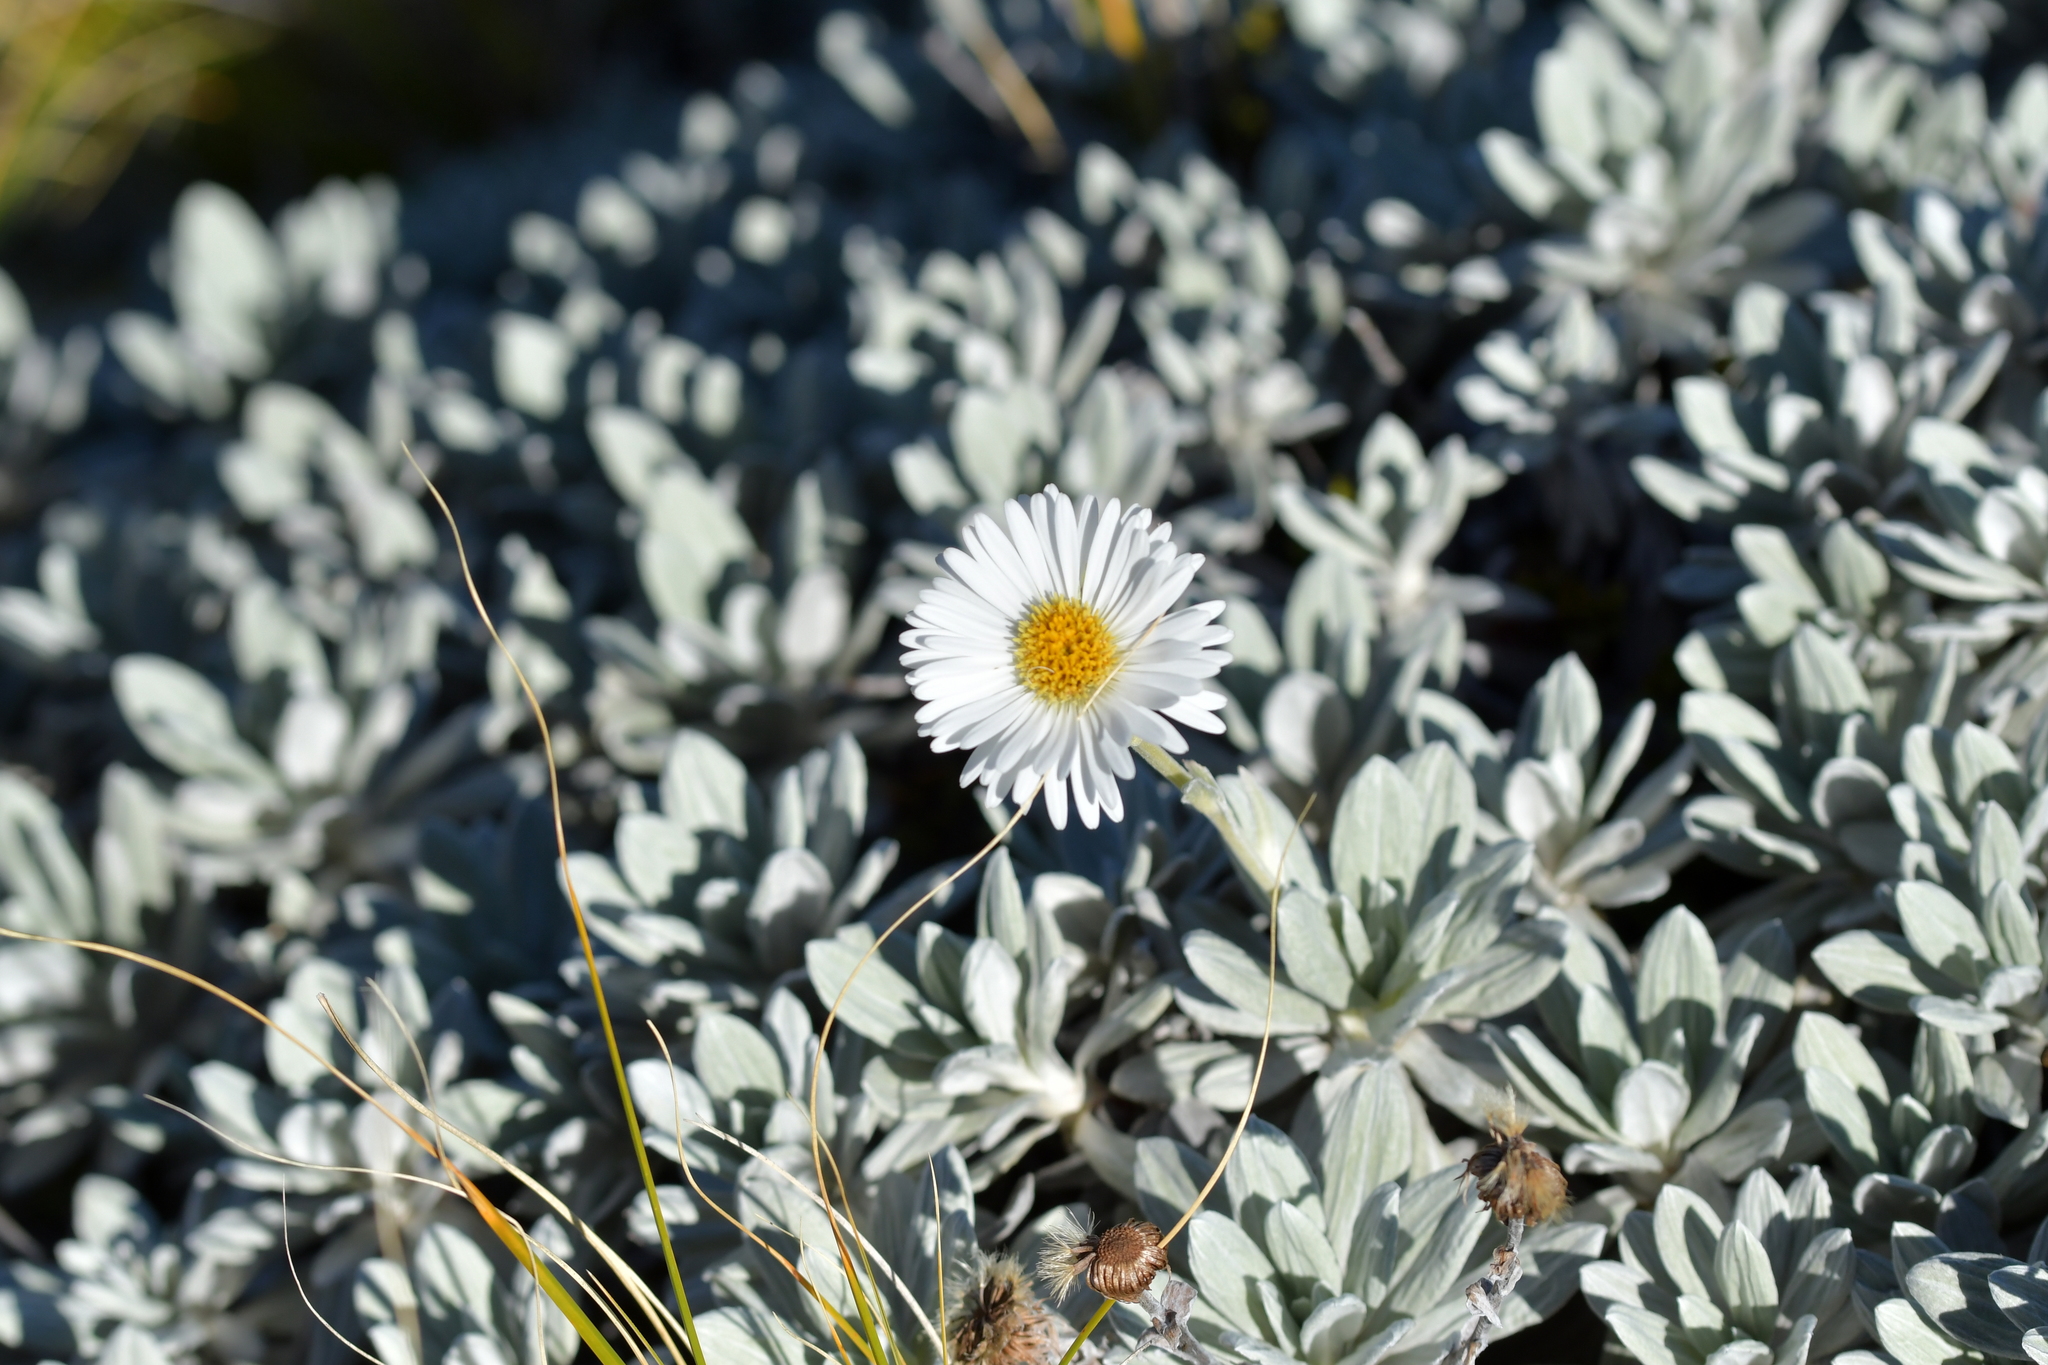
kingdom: Plantae
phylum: Tracheophyta
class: Magnoliopsida
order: Asterales
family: Asteraceae
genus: Celmisia
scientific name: Celmisia incana
